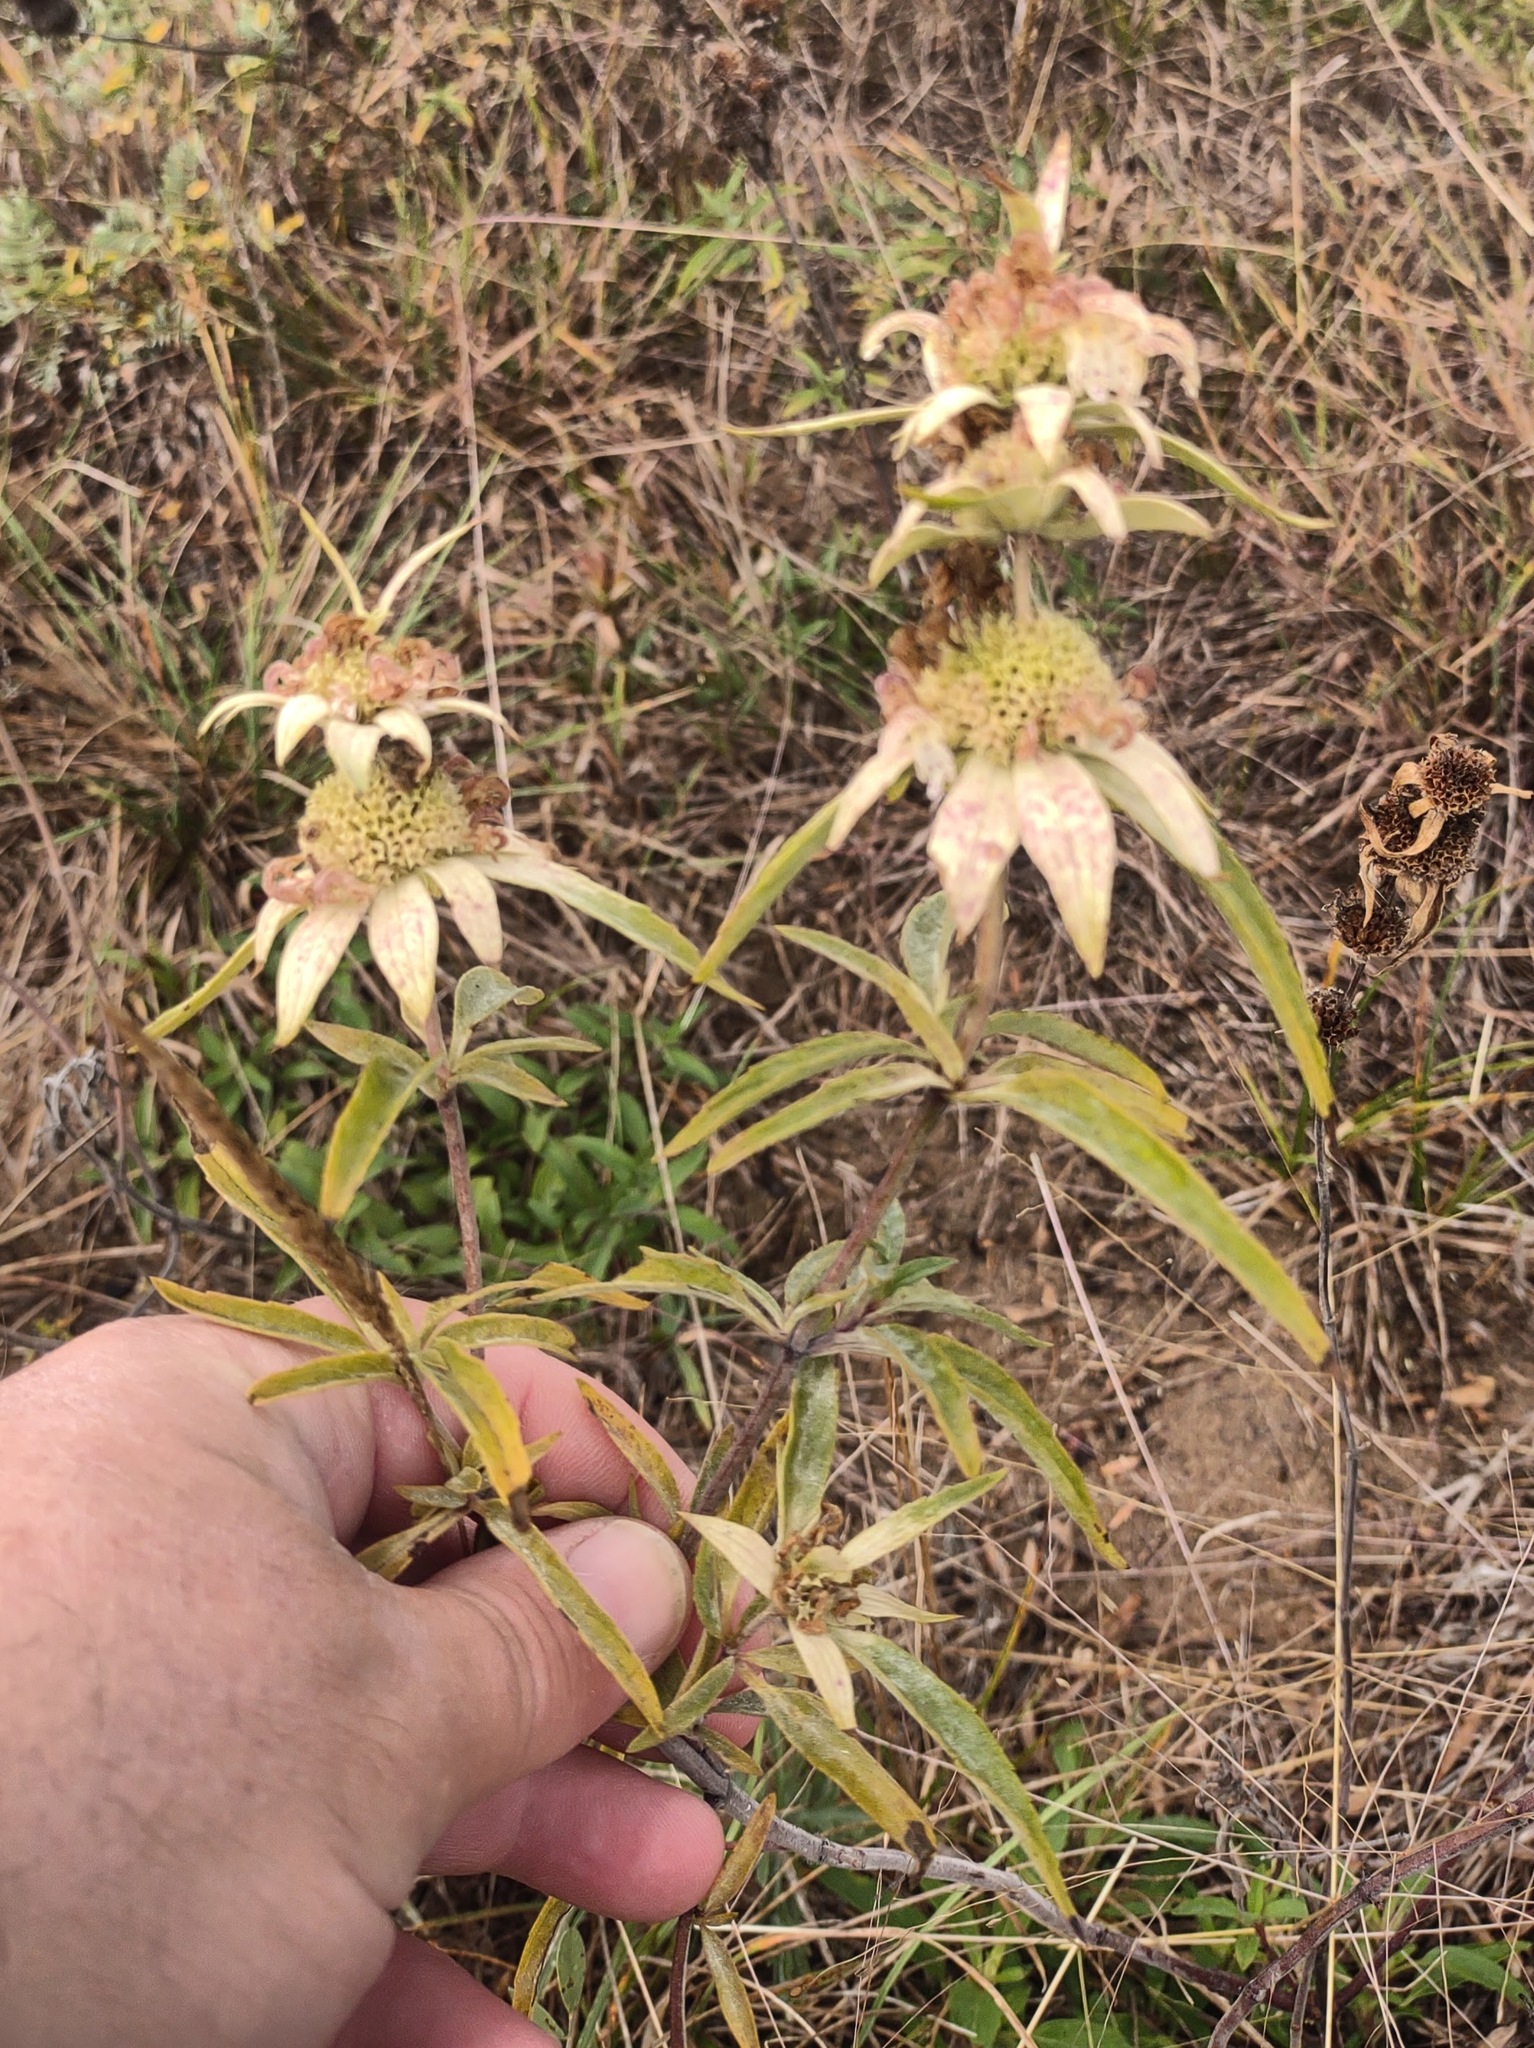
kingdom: Plantae
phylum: Tracheophyta
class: Magnoliopsida
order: Lamiales
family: Lamiaceae
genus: Monarda
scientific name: Monarda punctata
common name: Dotted monarda
